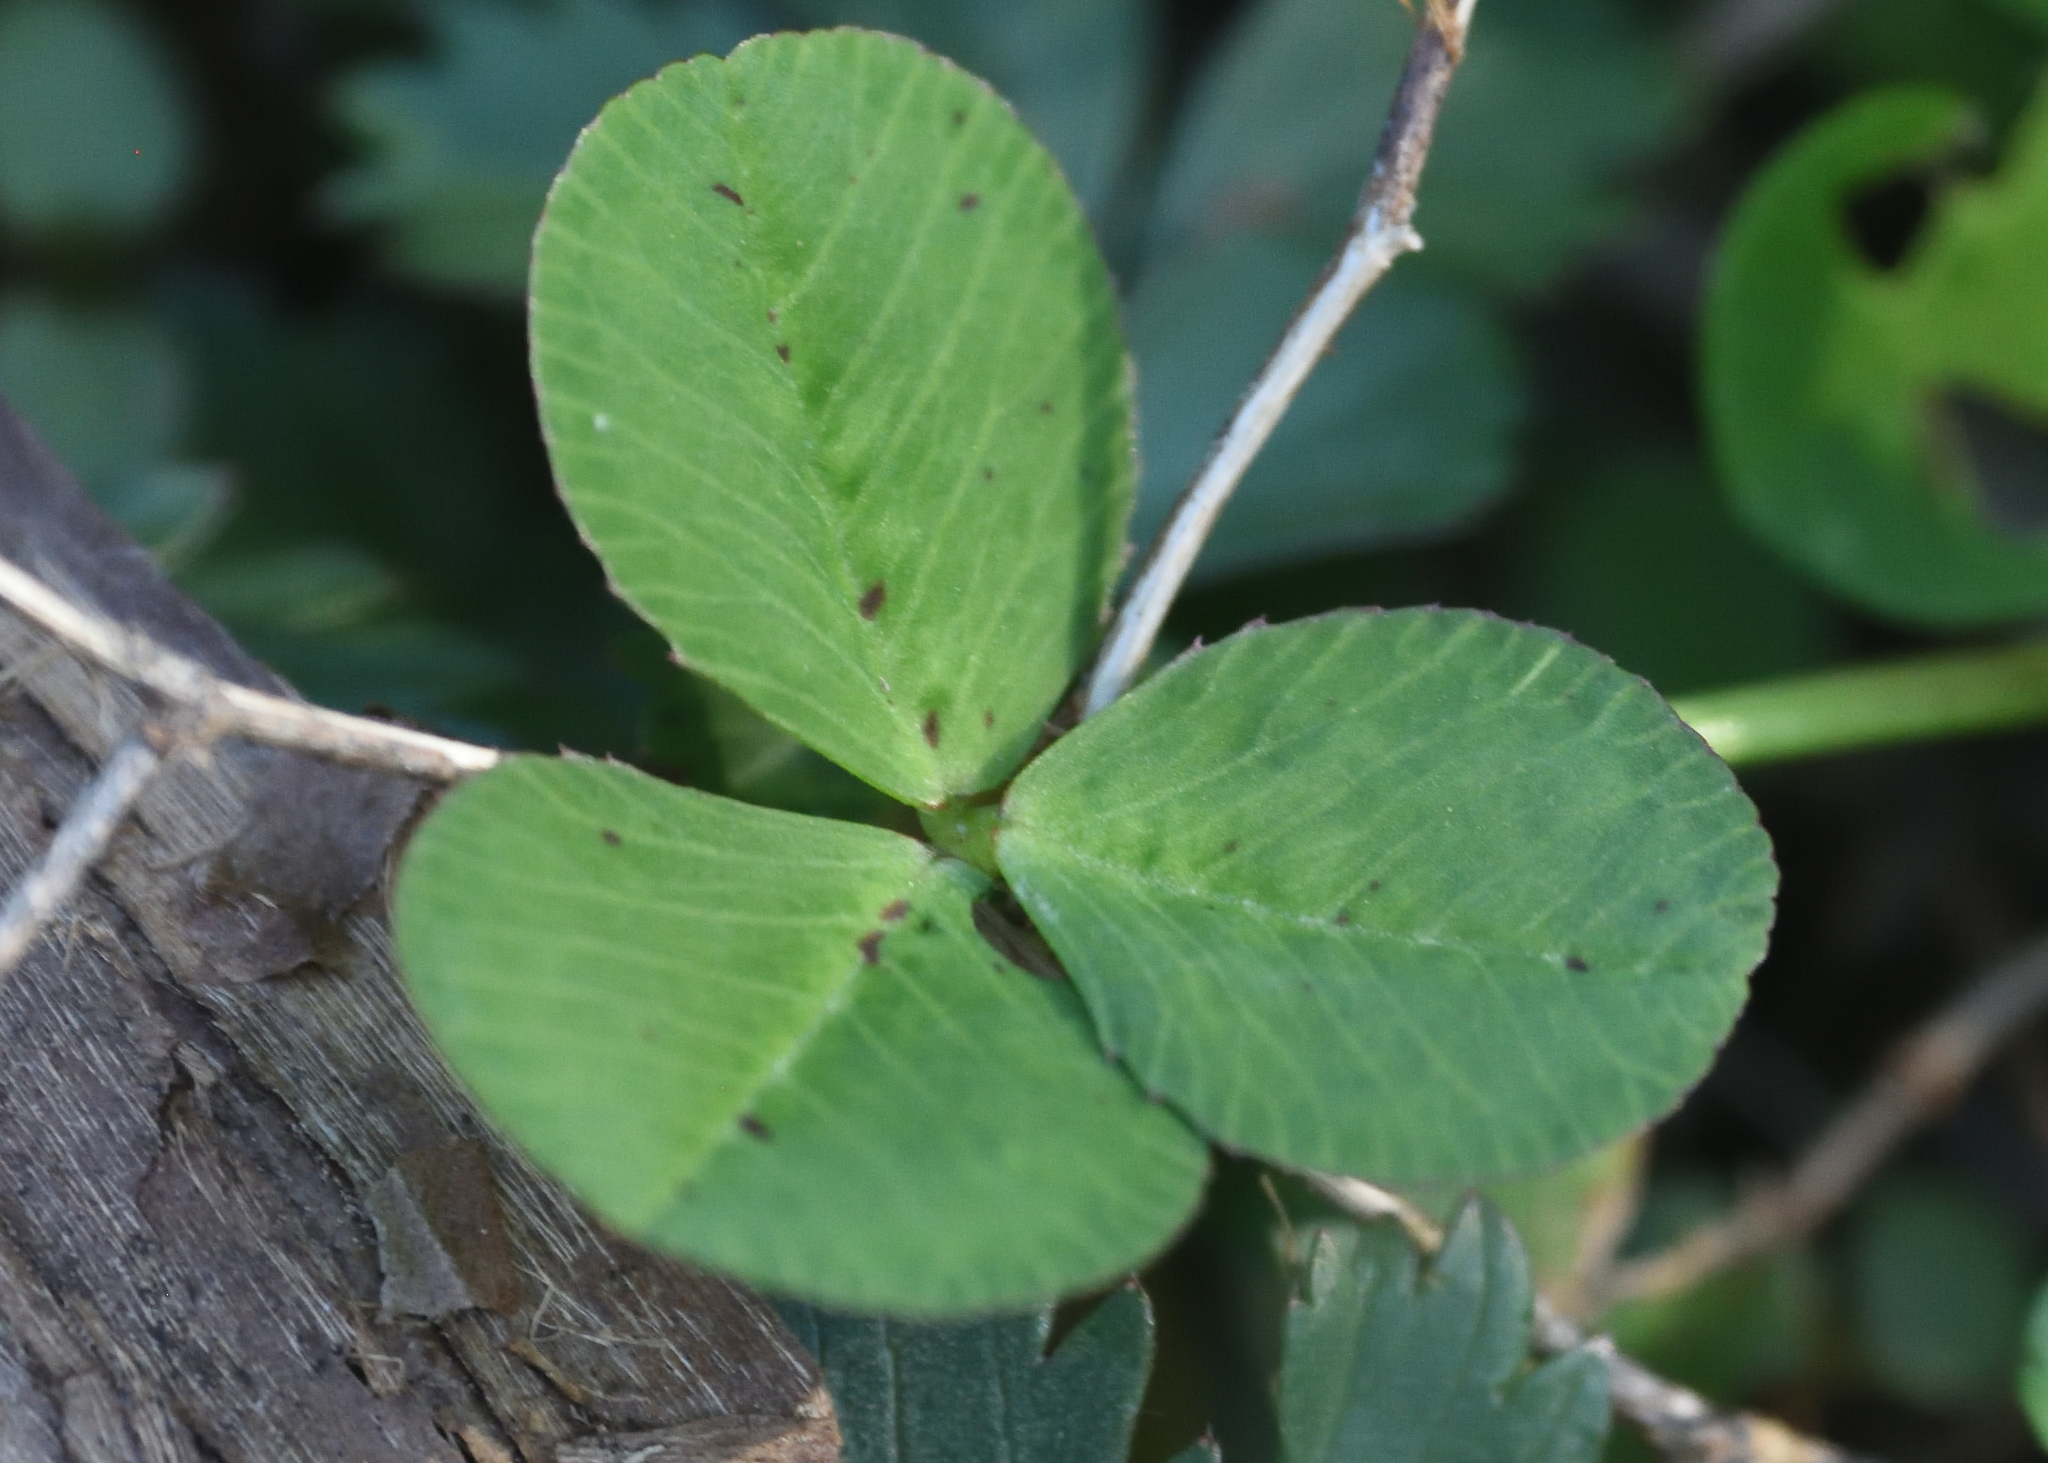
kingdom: Plantae
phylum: Tracheophyta
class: Magnoliopsida
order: Fabales
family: Fabaceae
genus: Trifolium
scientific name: Trifolium repens
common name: White clover
